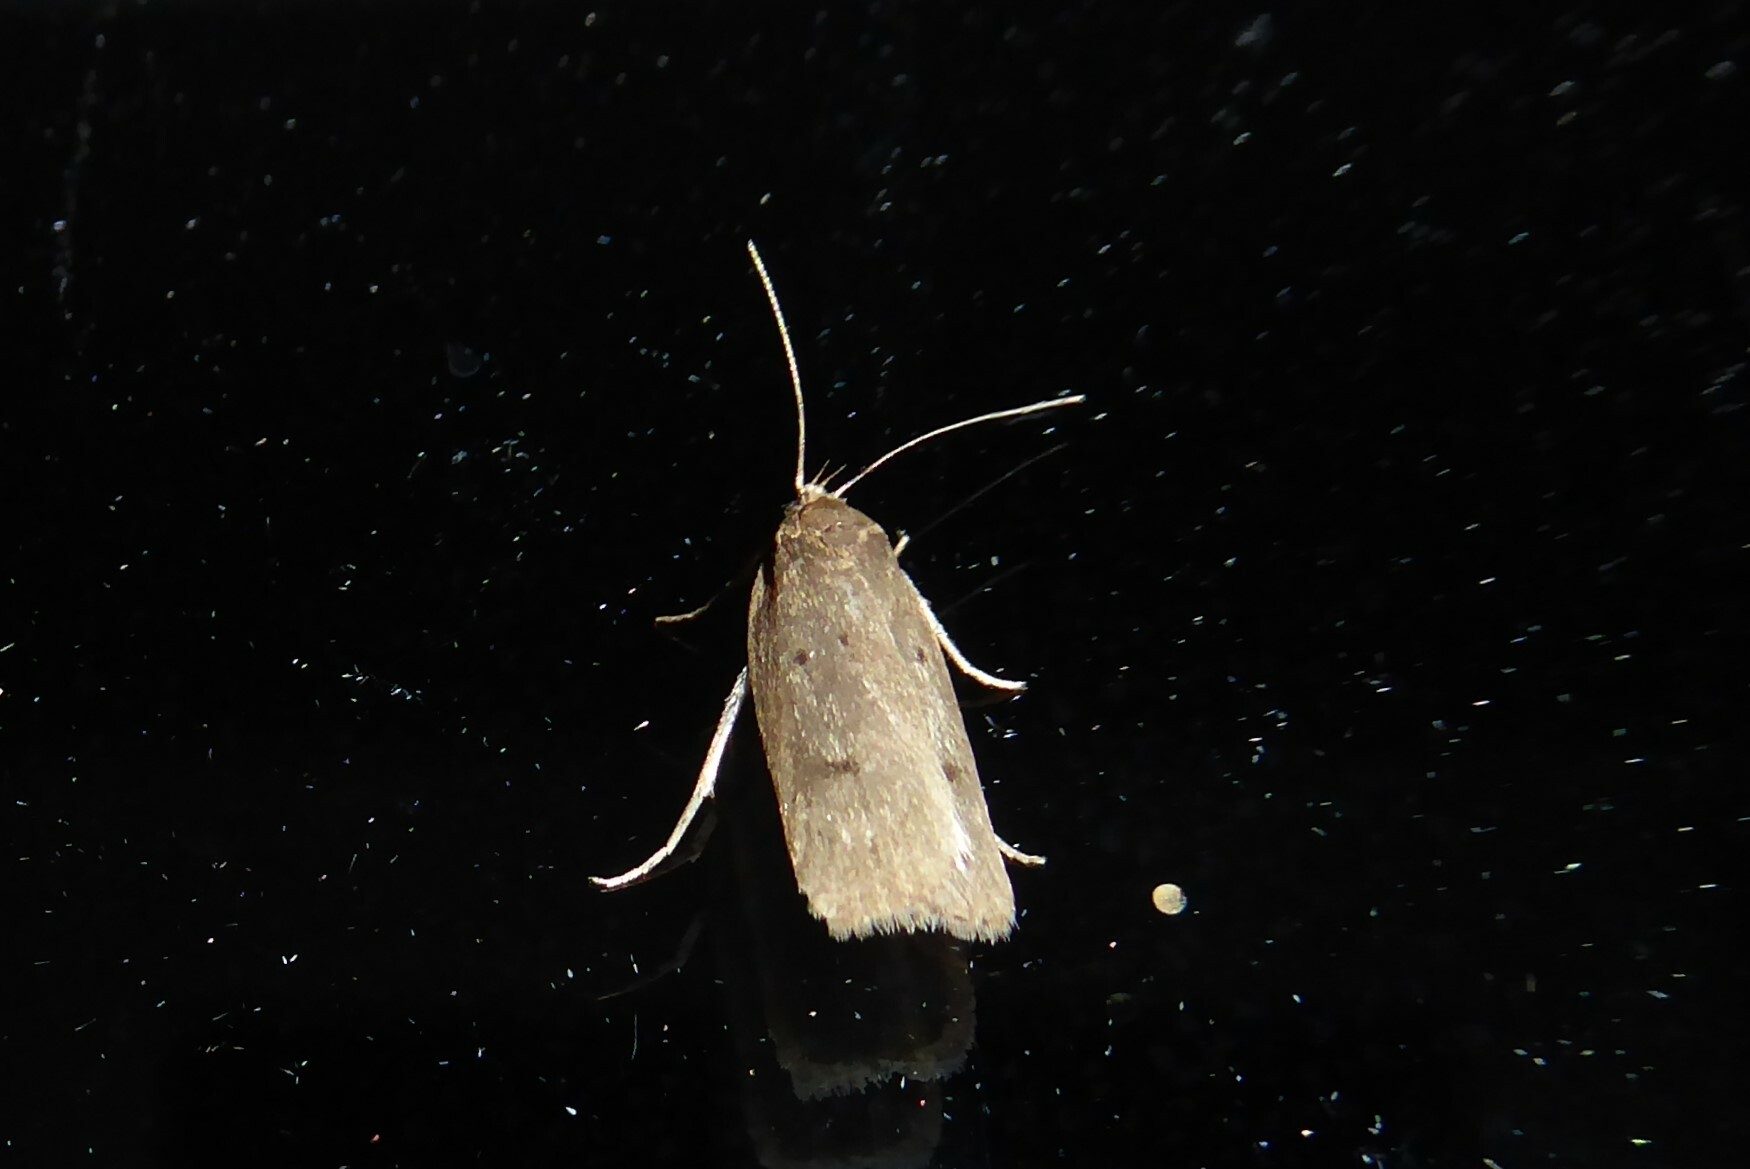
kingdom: Animalia
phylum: Arthropoda
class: Insecta
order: Lepidoptera
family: Depressariidae
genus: Phaeosaces
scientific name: Phaeosaces apocrypta
